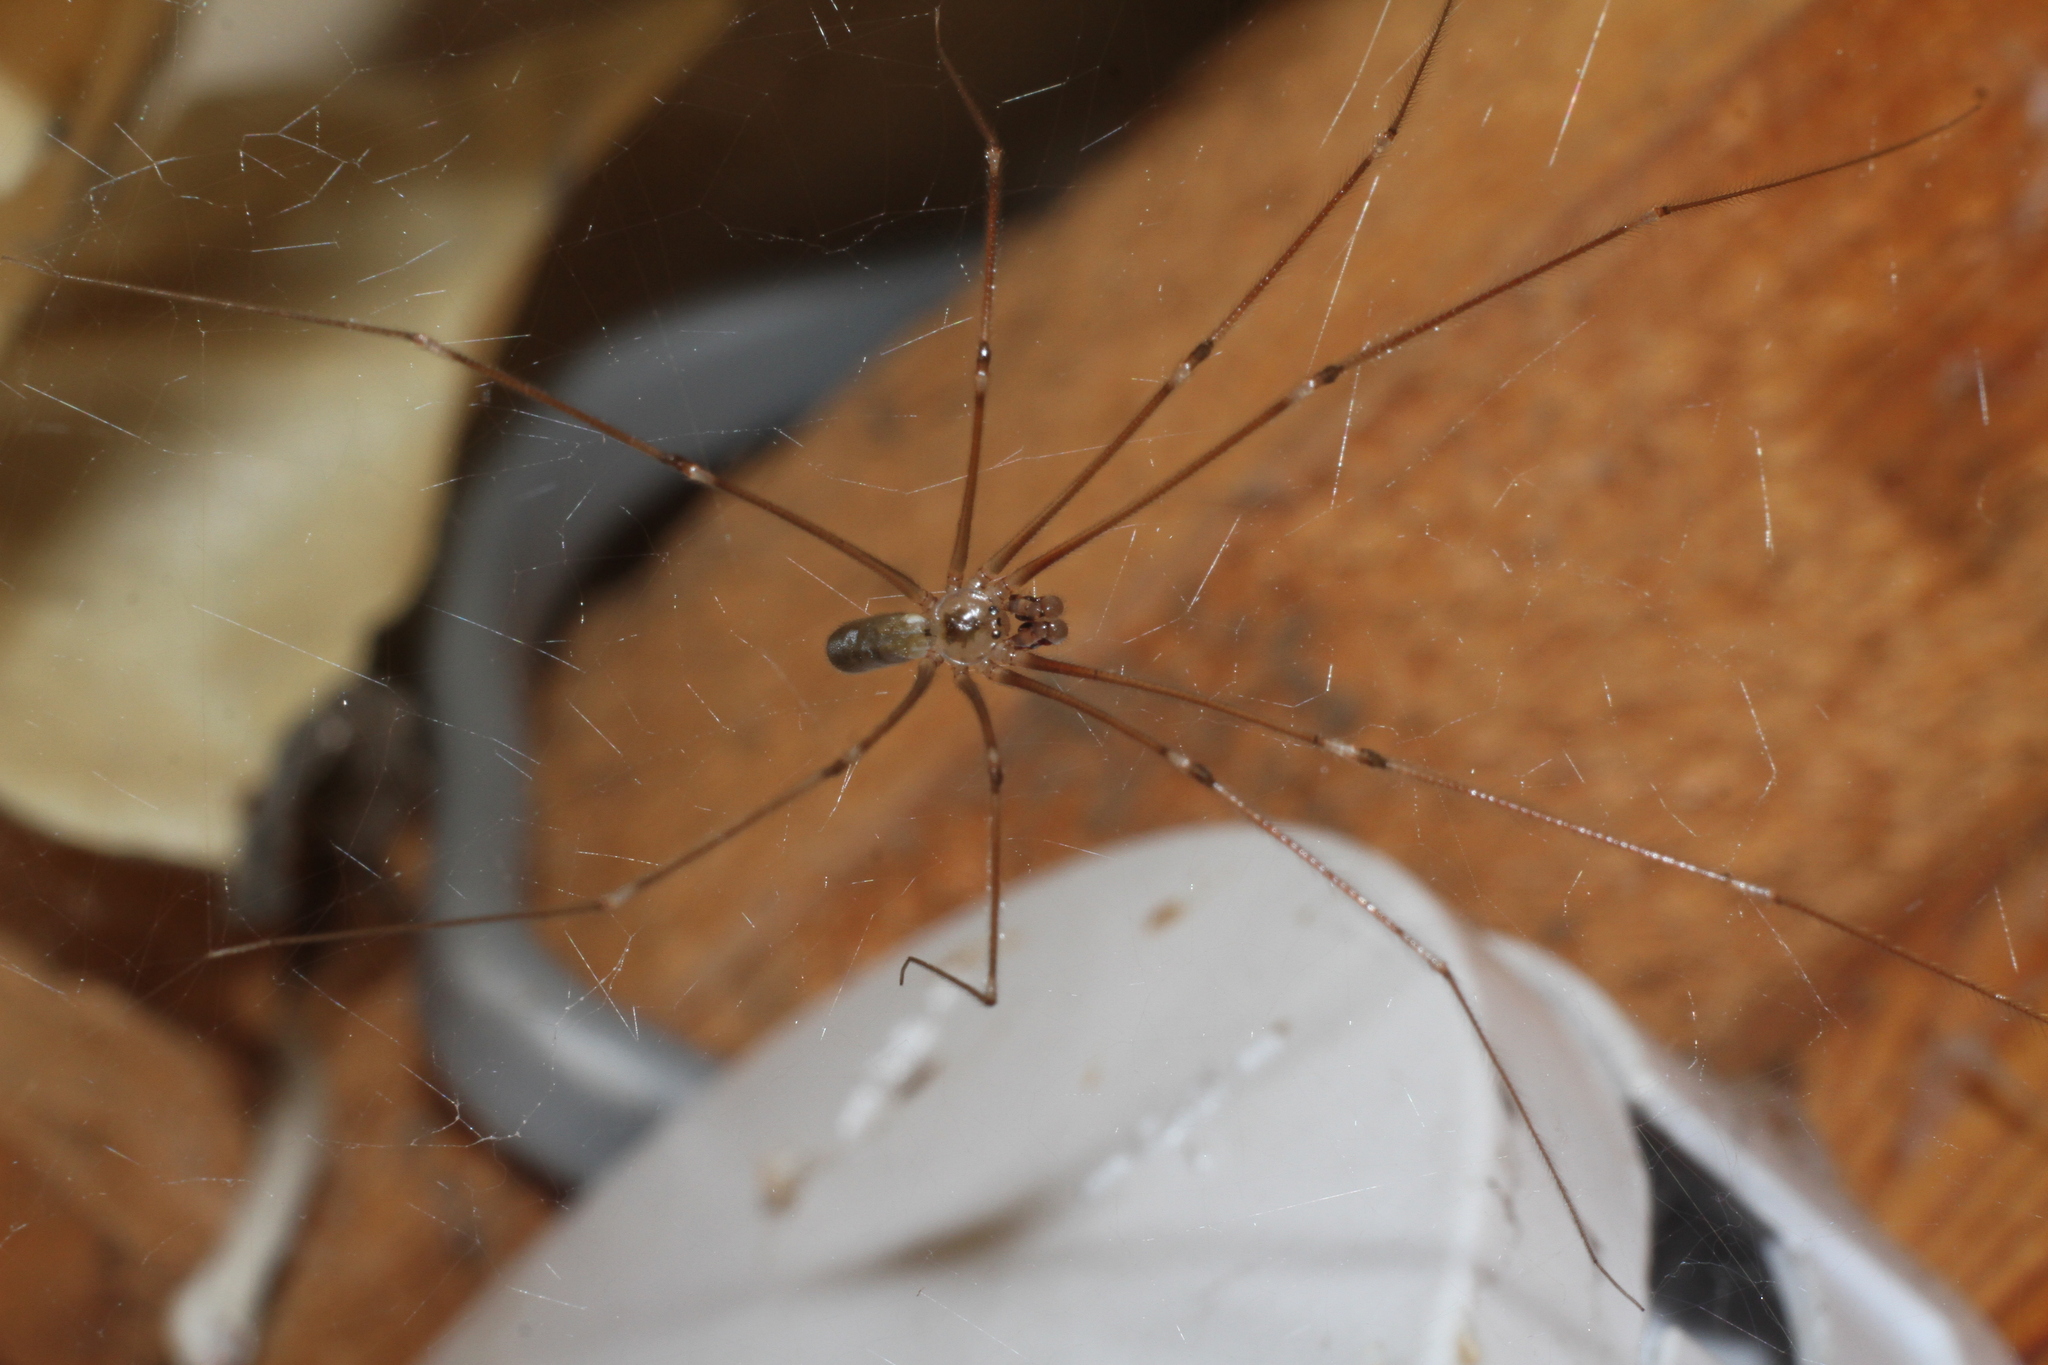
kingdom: Animalia
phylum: Arthropoda
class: Arachnida
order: Araneae
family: Pholcidae
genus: Pholcus
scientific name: Pholcus phalangioides
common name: Longbodied cellar spider
